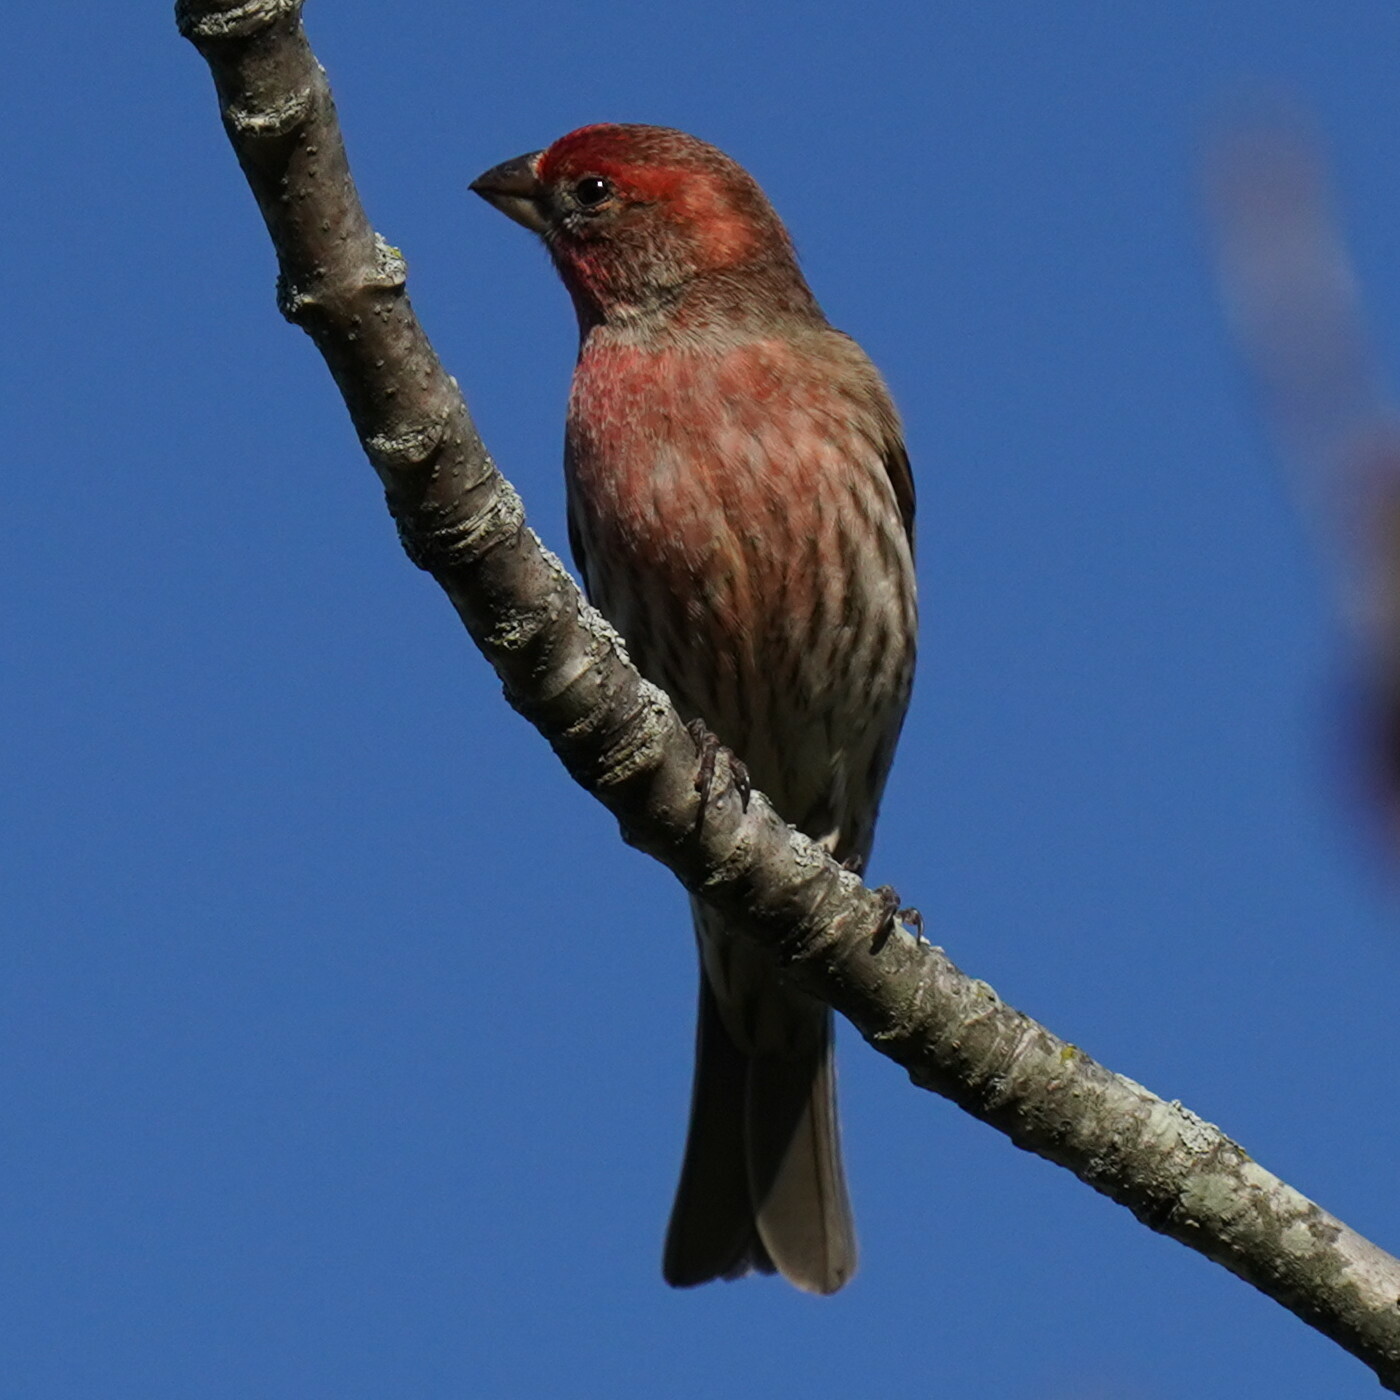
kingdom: Animalia
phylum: Chordata
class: Aves
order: Passeriformes
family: Fringillidae
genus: Haemorhous
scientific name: Haemorhous mexicanus
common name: House finch
